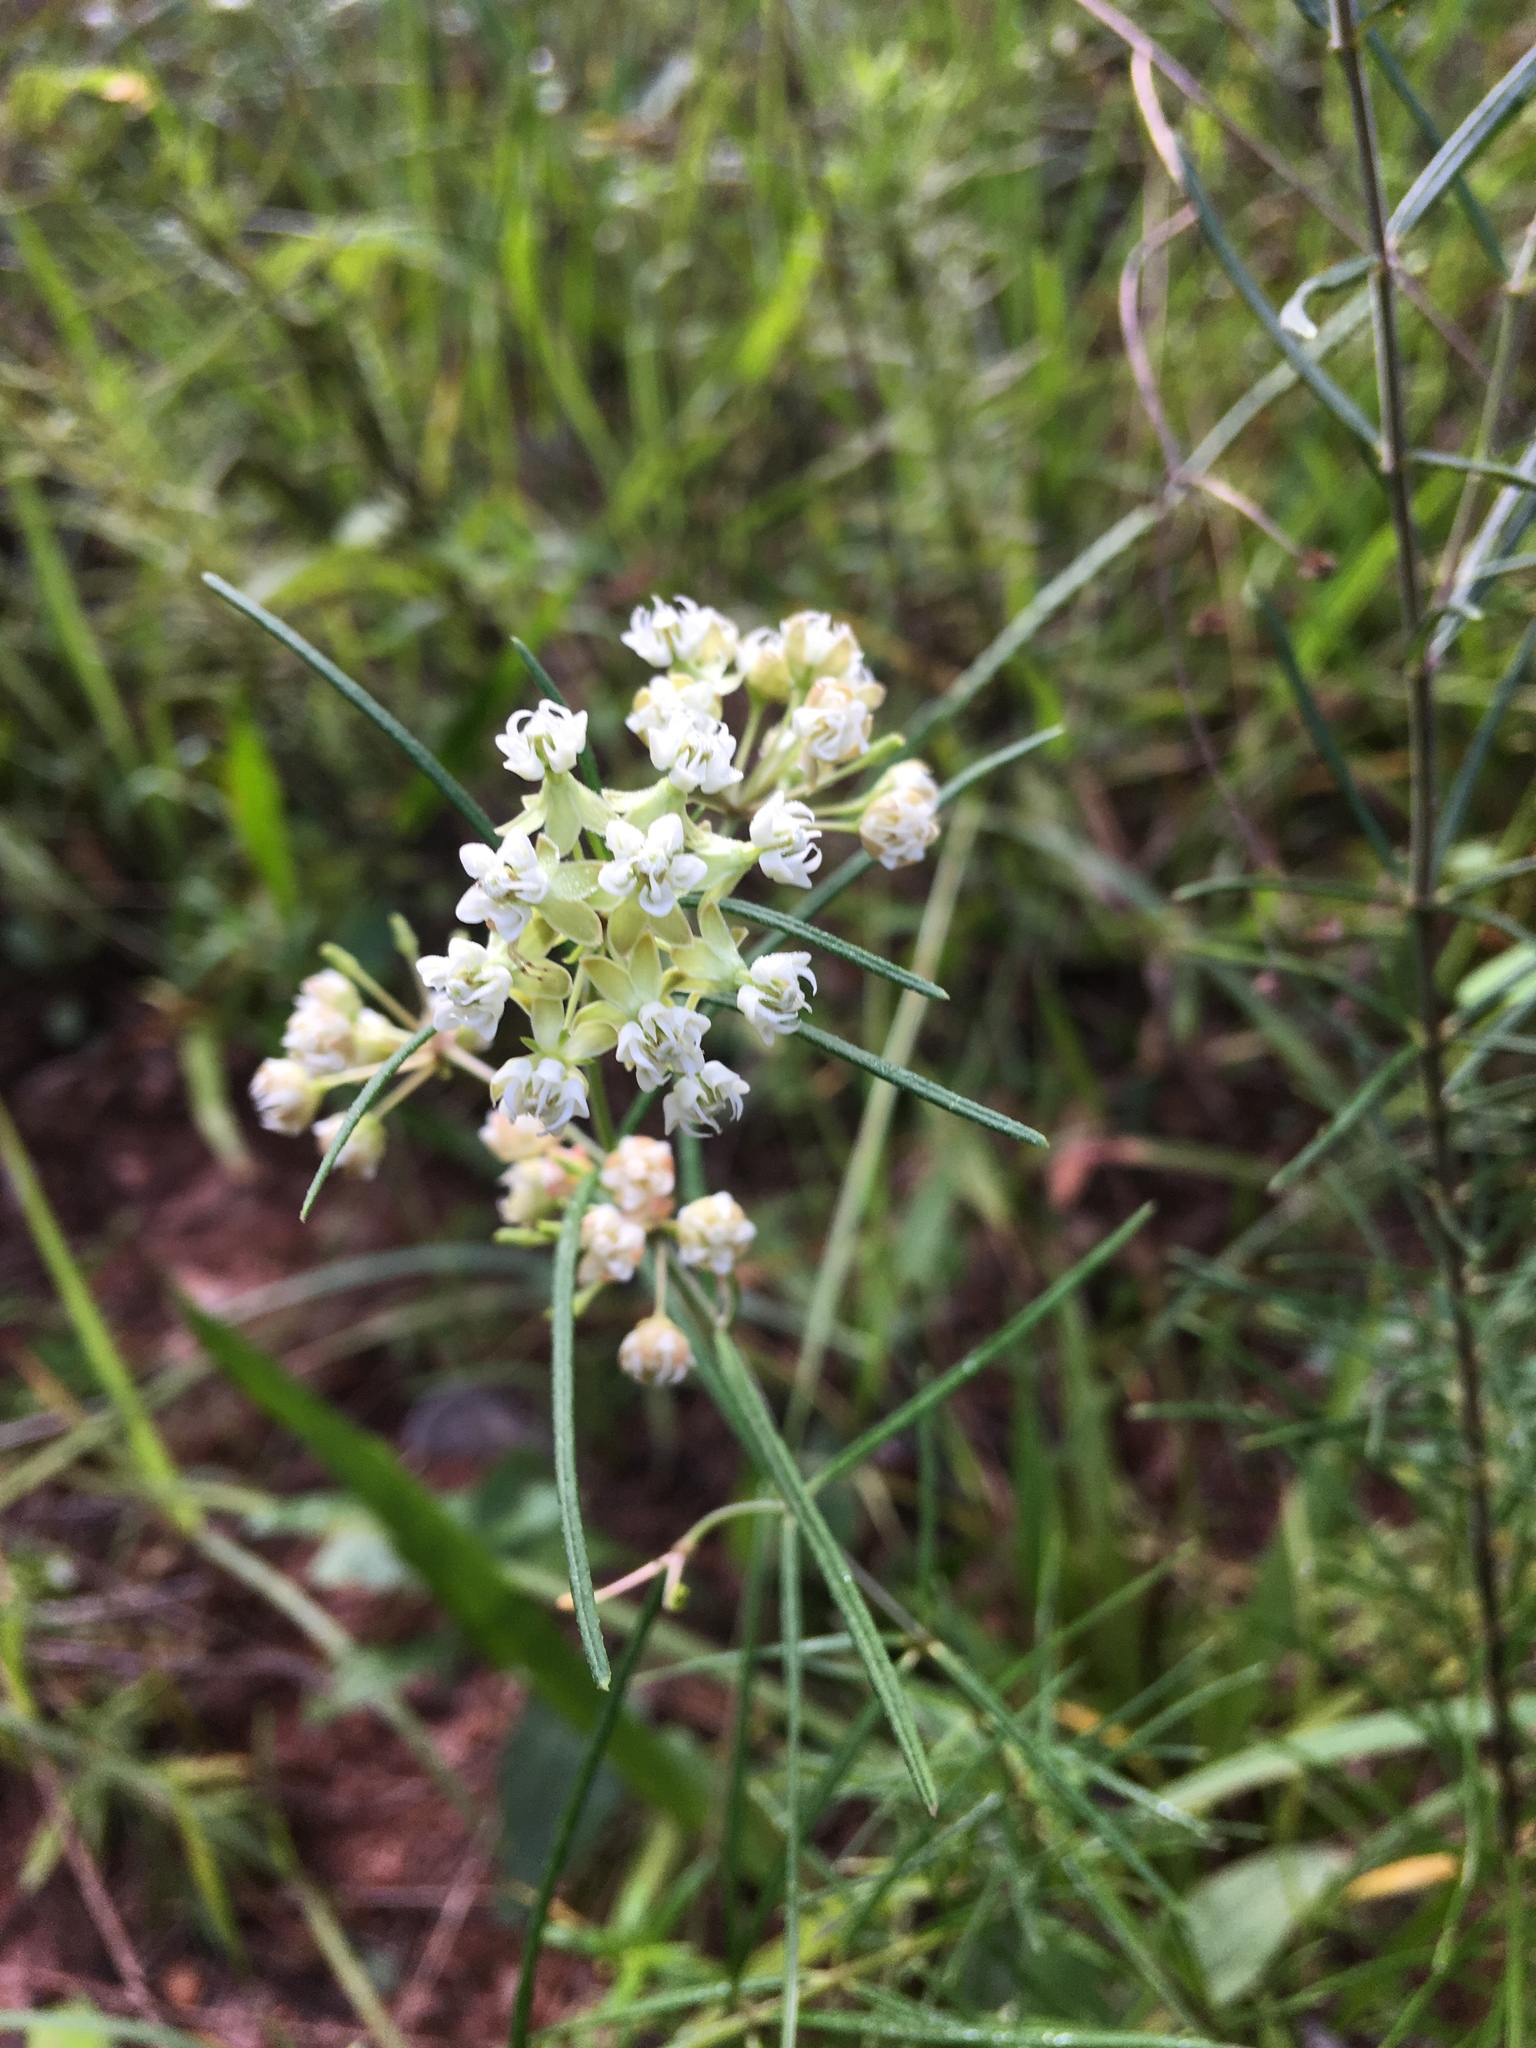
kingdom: Plantae
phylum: Tracheophyta
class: Magnoliopsida
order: Gentianales
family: Apocynaceae
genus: Asclepias
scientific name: Asclepias verticillata
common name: Eastern whorled milkweed
